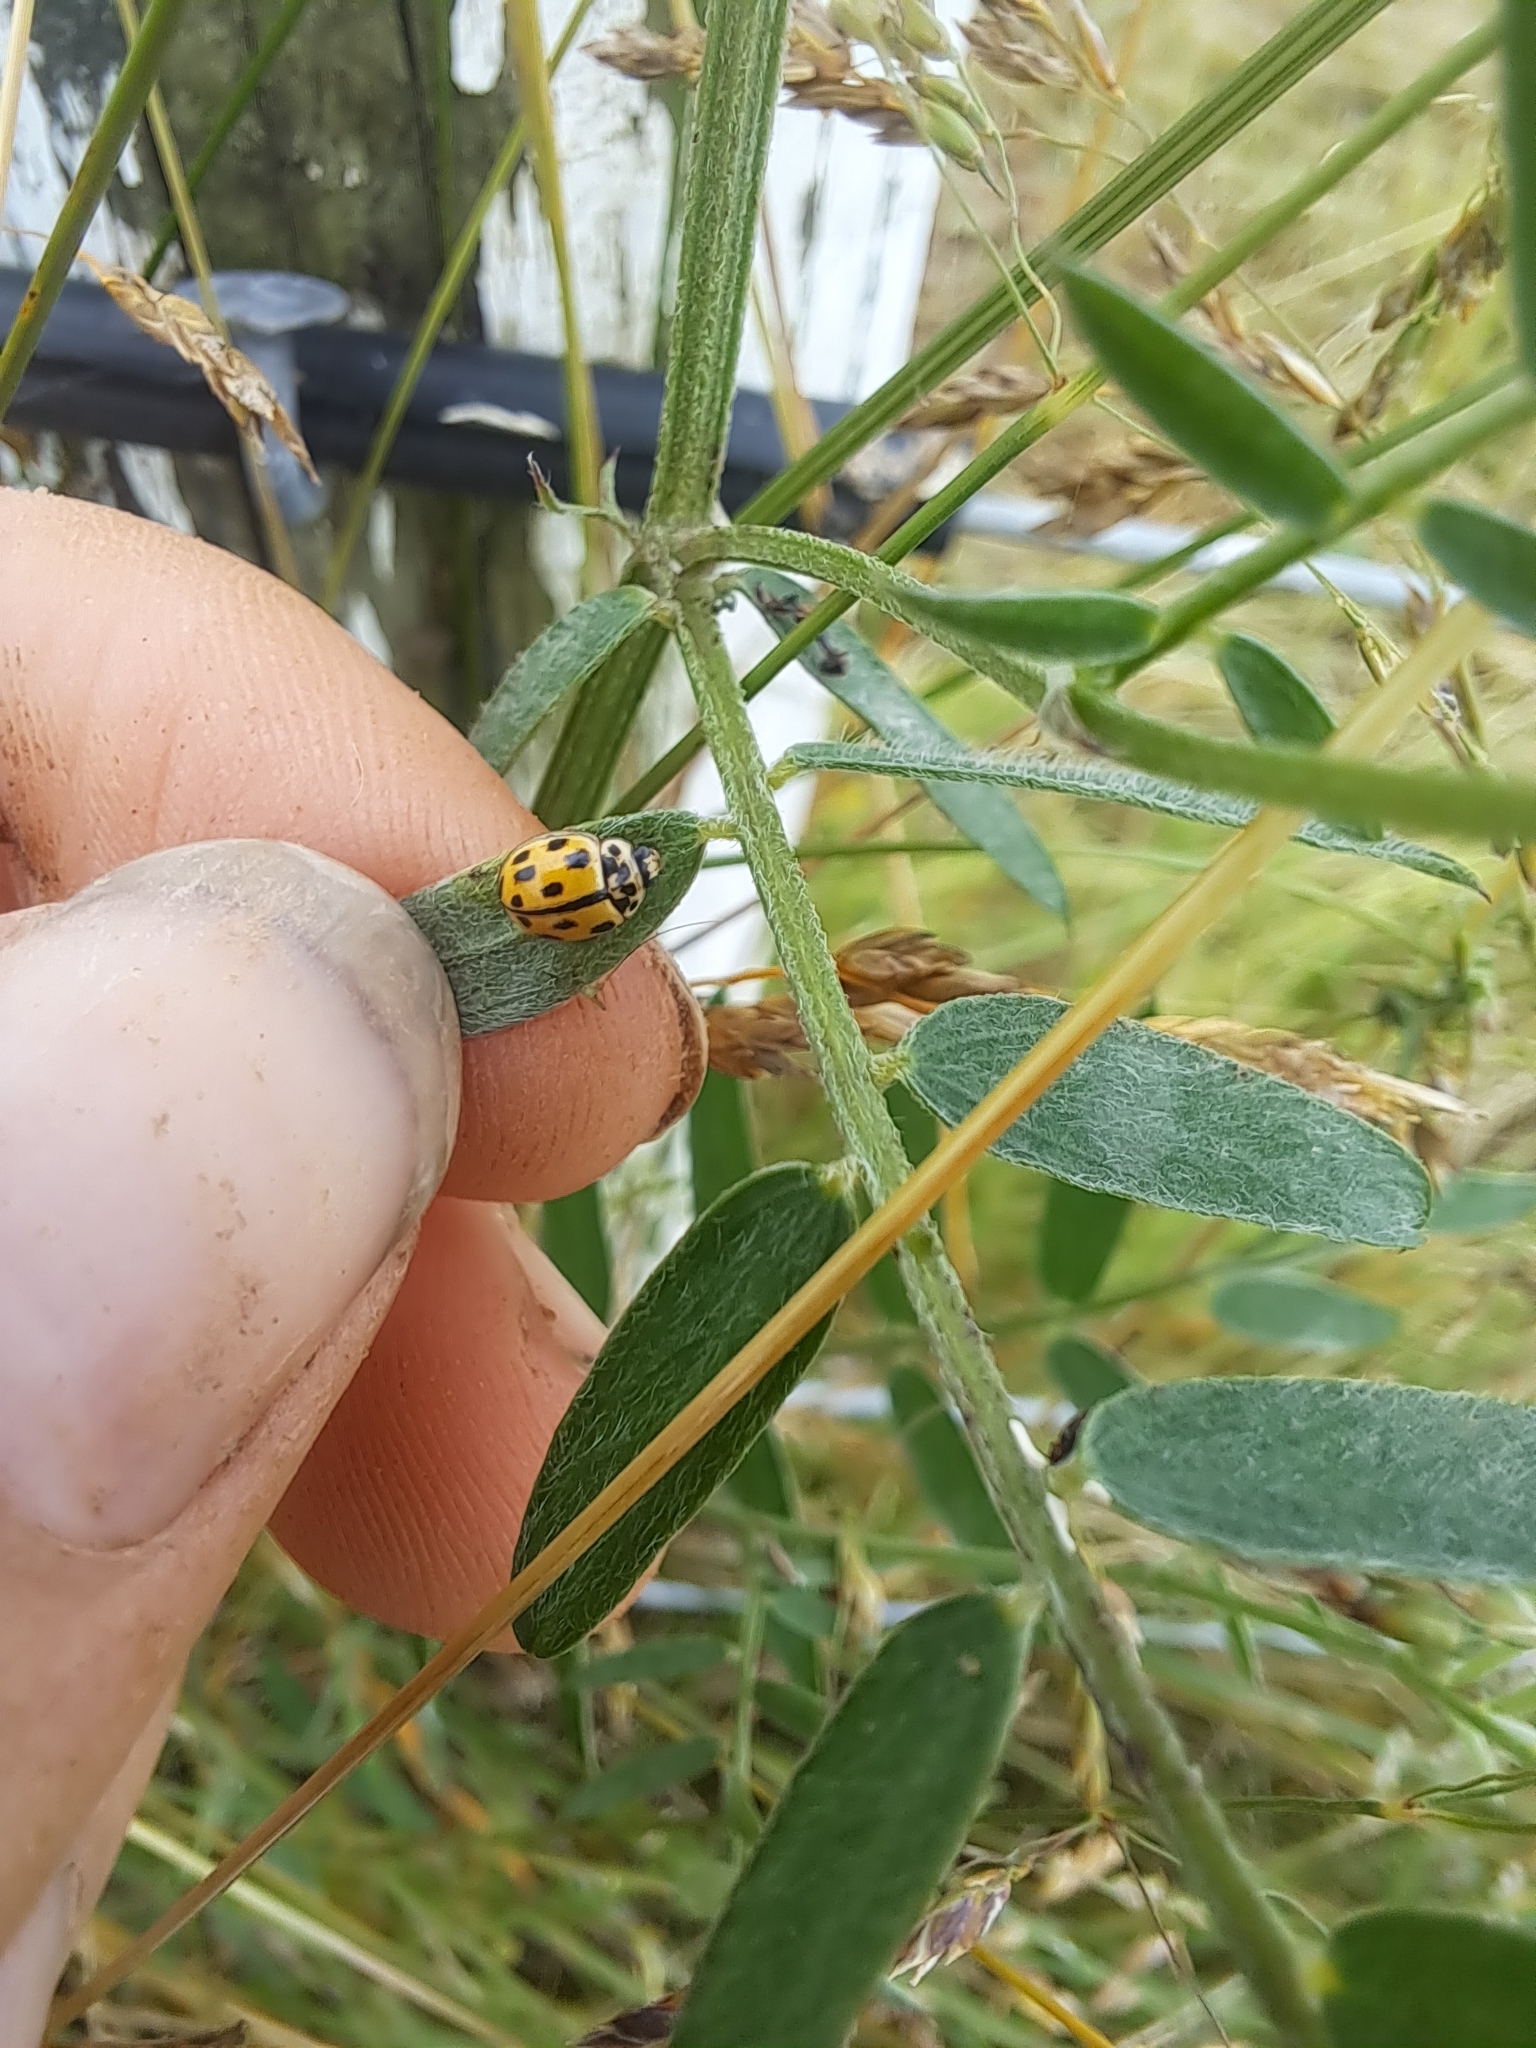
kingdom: Animalia
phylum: Arthropoda
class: Insecta
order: Coleoptera
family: Coccinellidae
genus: Propylaea
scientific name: Propylaea quatuordecimpunctata
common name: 14-spotted ladybird beetle
